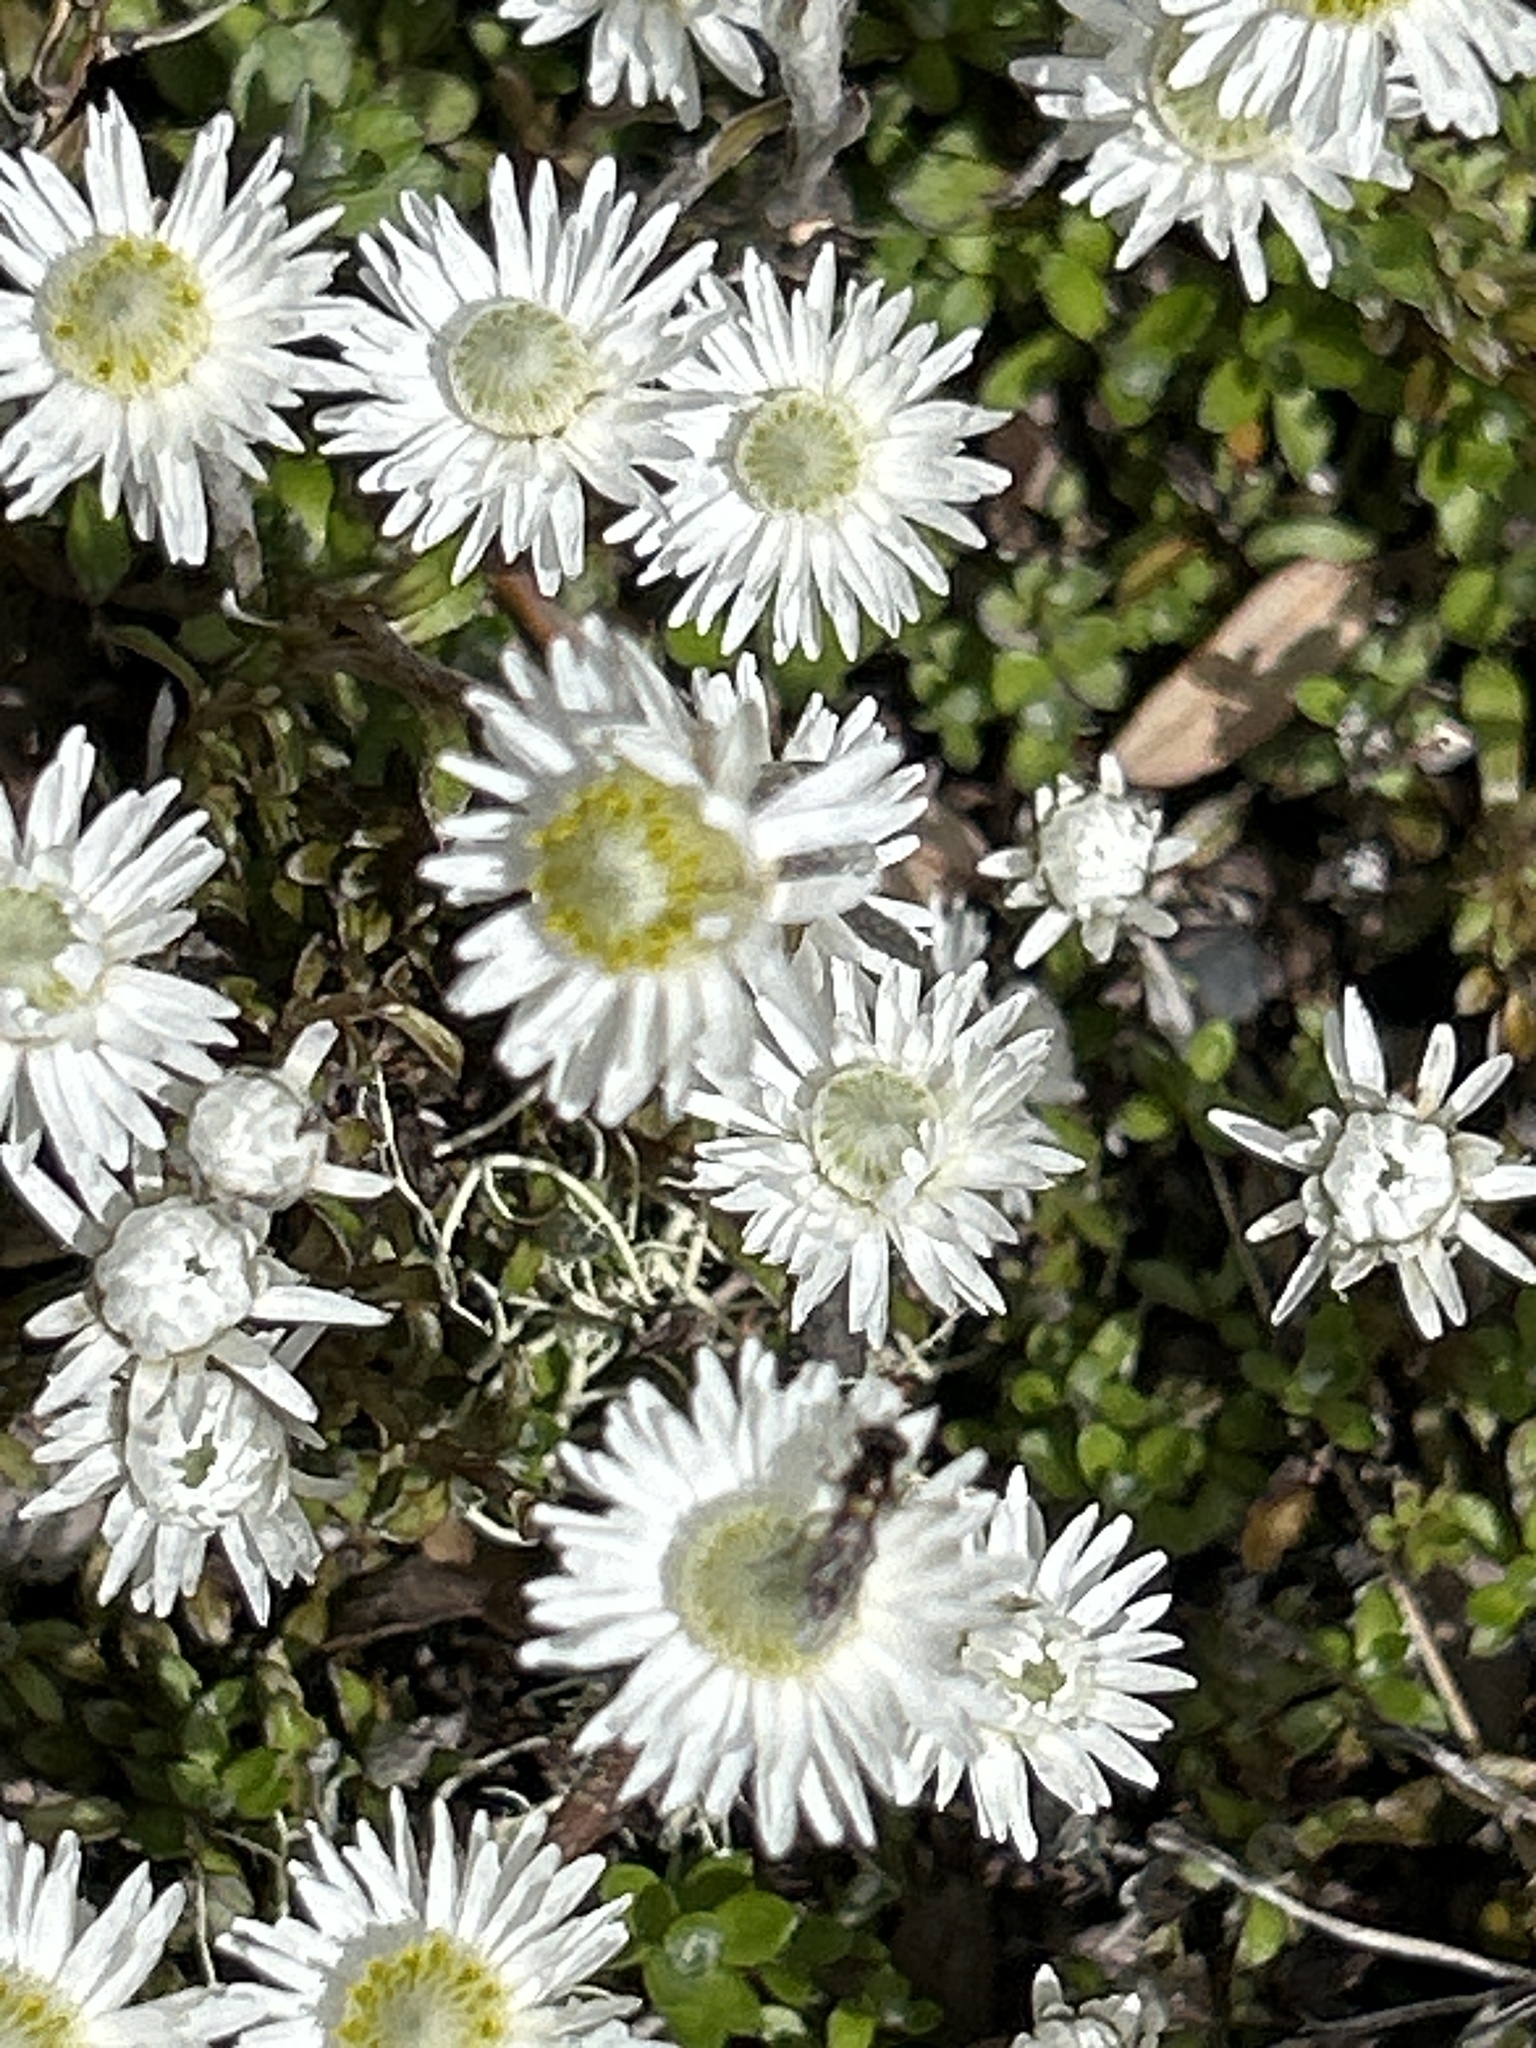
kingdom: Plantae
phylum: Tracheophyta
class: Magnoliopsida
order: Asterales
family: Asteraceae
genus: Anaphalioides
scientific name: Anaphalioides bellidioides
